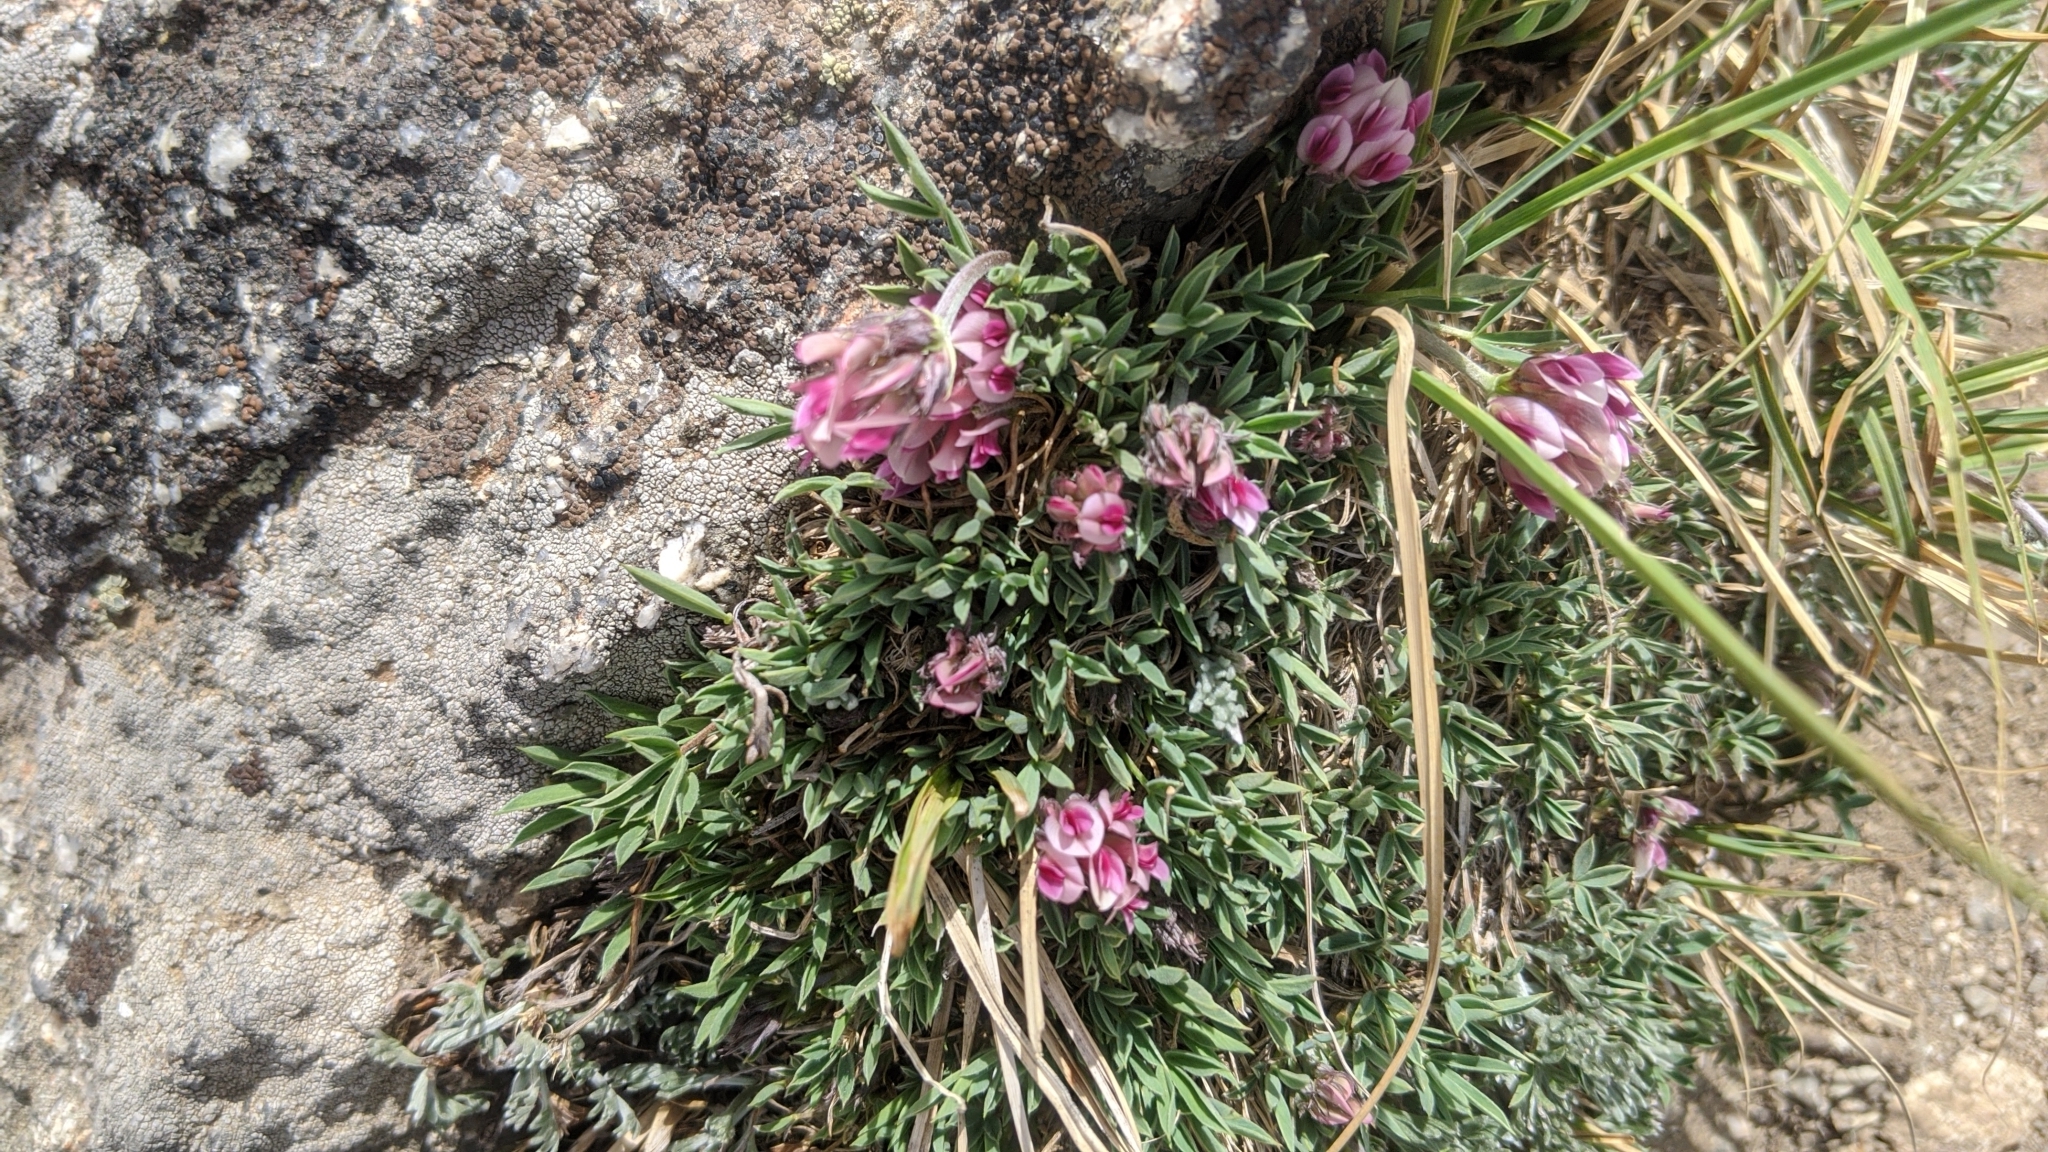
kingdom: Plantae
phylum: Tracheophyta
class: Magnoliopsida
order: Fabales
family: Fabaceae
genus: Trifolium
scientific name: Trifolium dasyphyllum
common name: Whip-root clover
